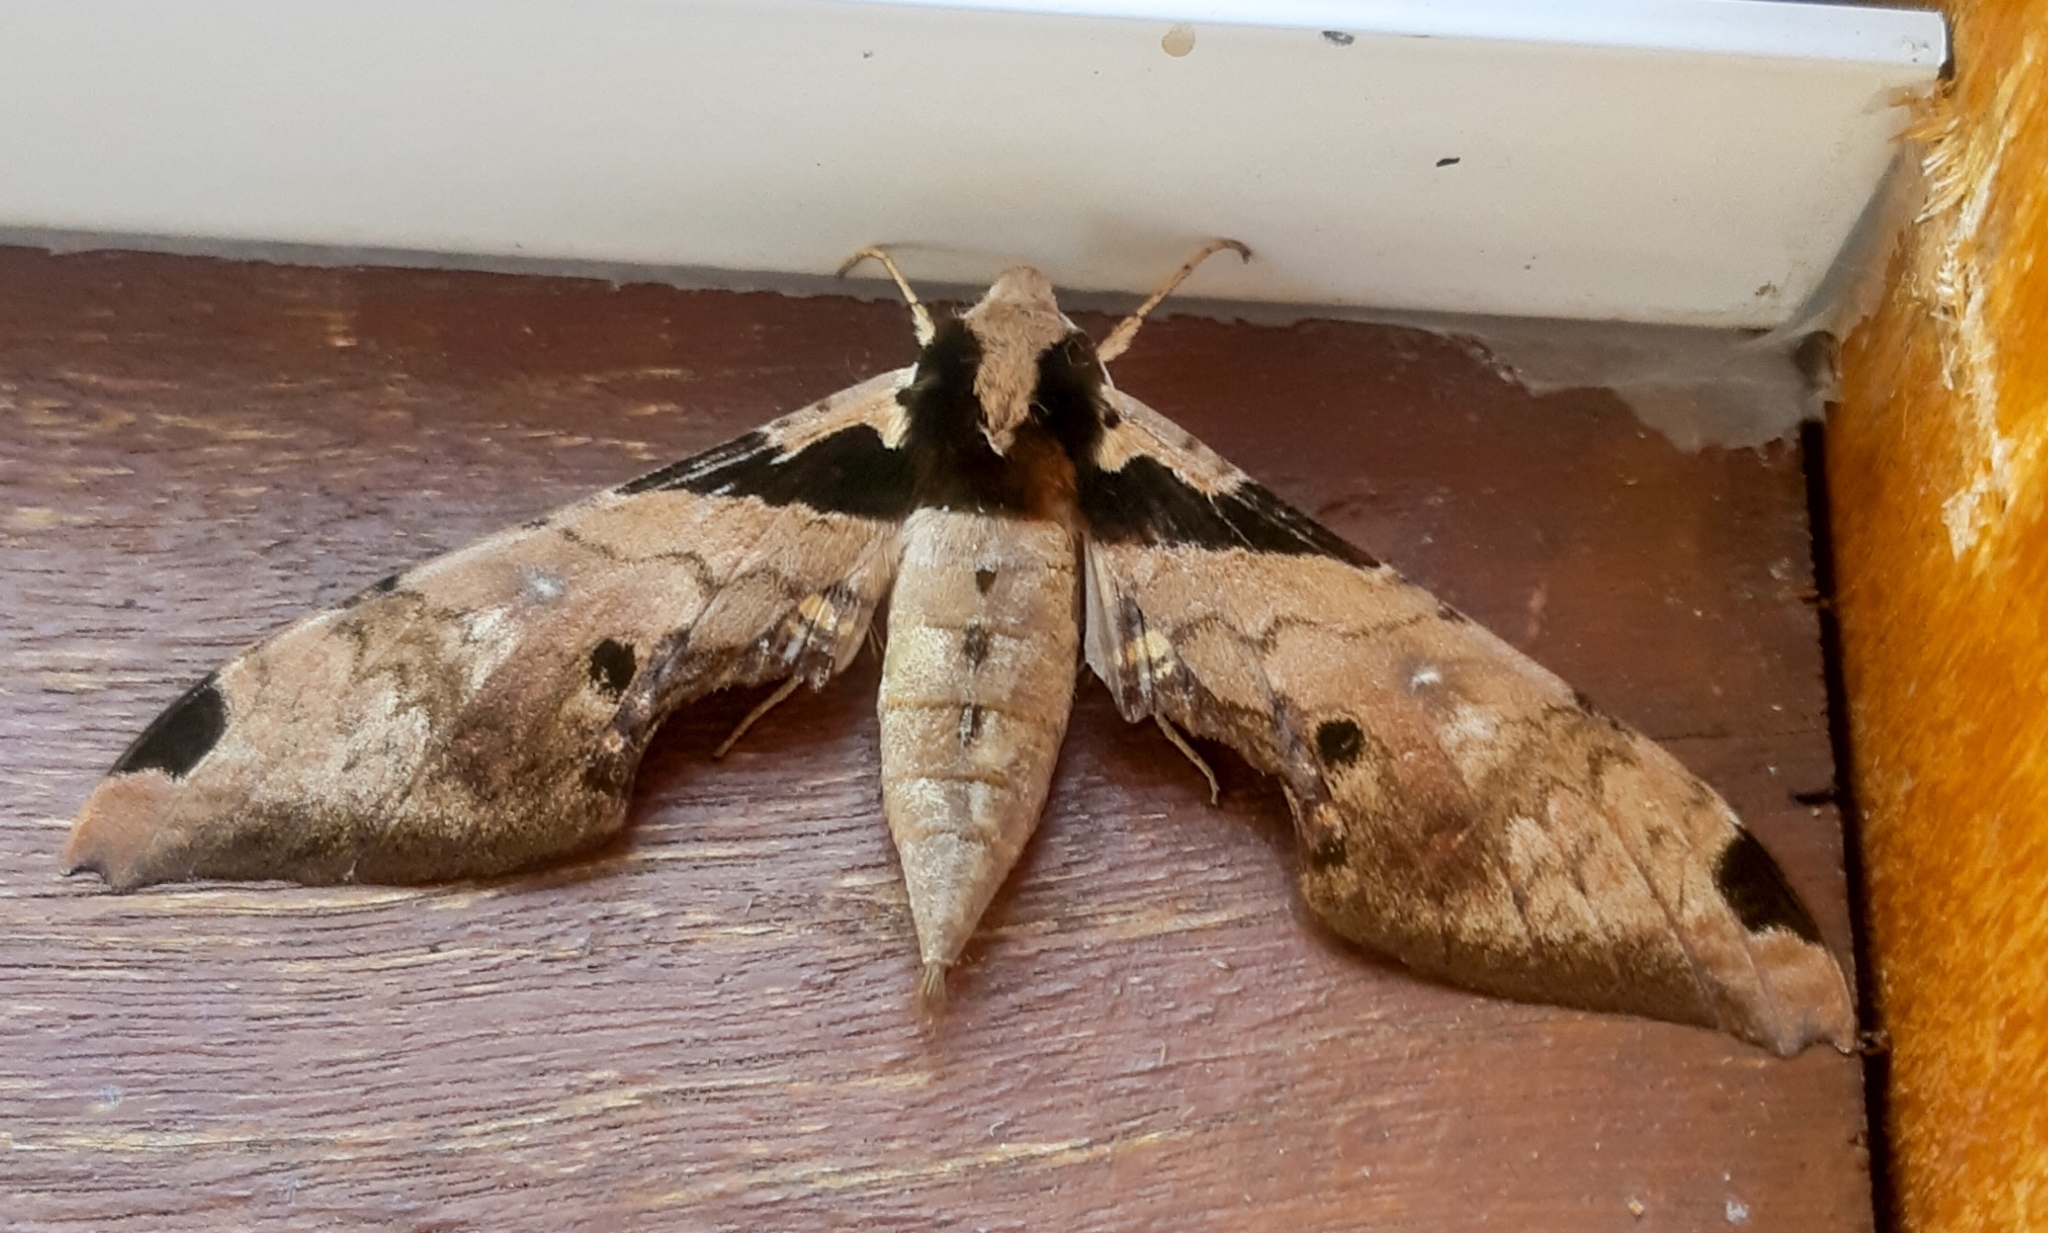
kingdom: Animalia
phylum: Arthropoda
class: Insecta
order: Lepidoptera
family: Sphingidae
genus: Adhemarius
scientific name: Adhemarius eurysthenes
